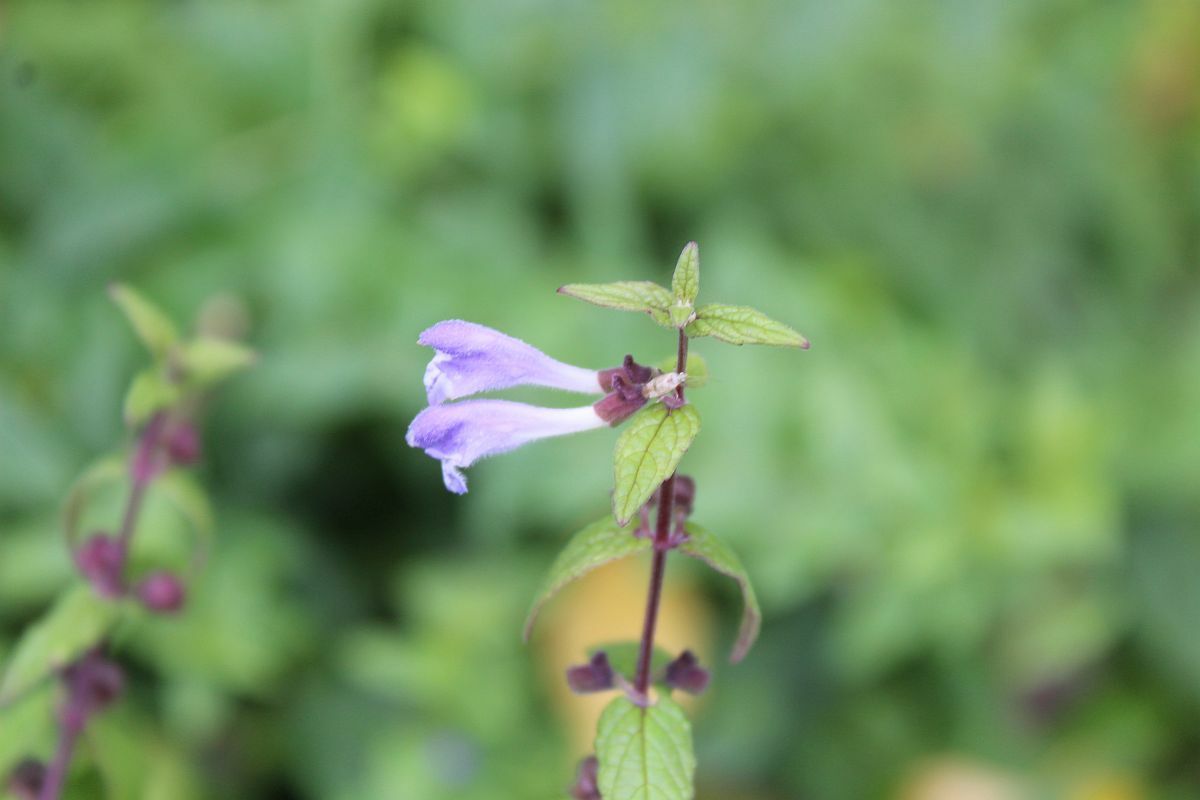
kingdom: Plantae
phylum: Tracheophyta
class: Magnoliopsida
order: Lamiales
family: Lamiaceae
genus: Scutellaria
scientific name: Scutellaria galericulata
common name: Skullcap
